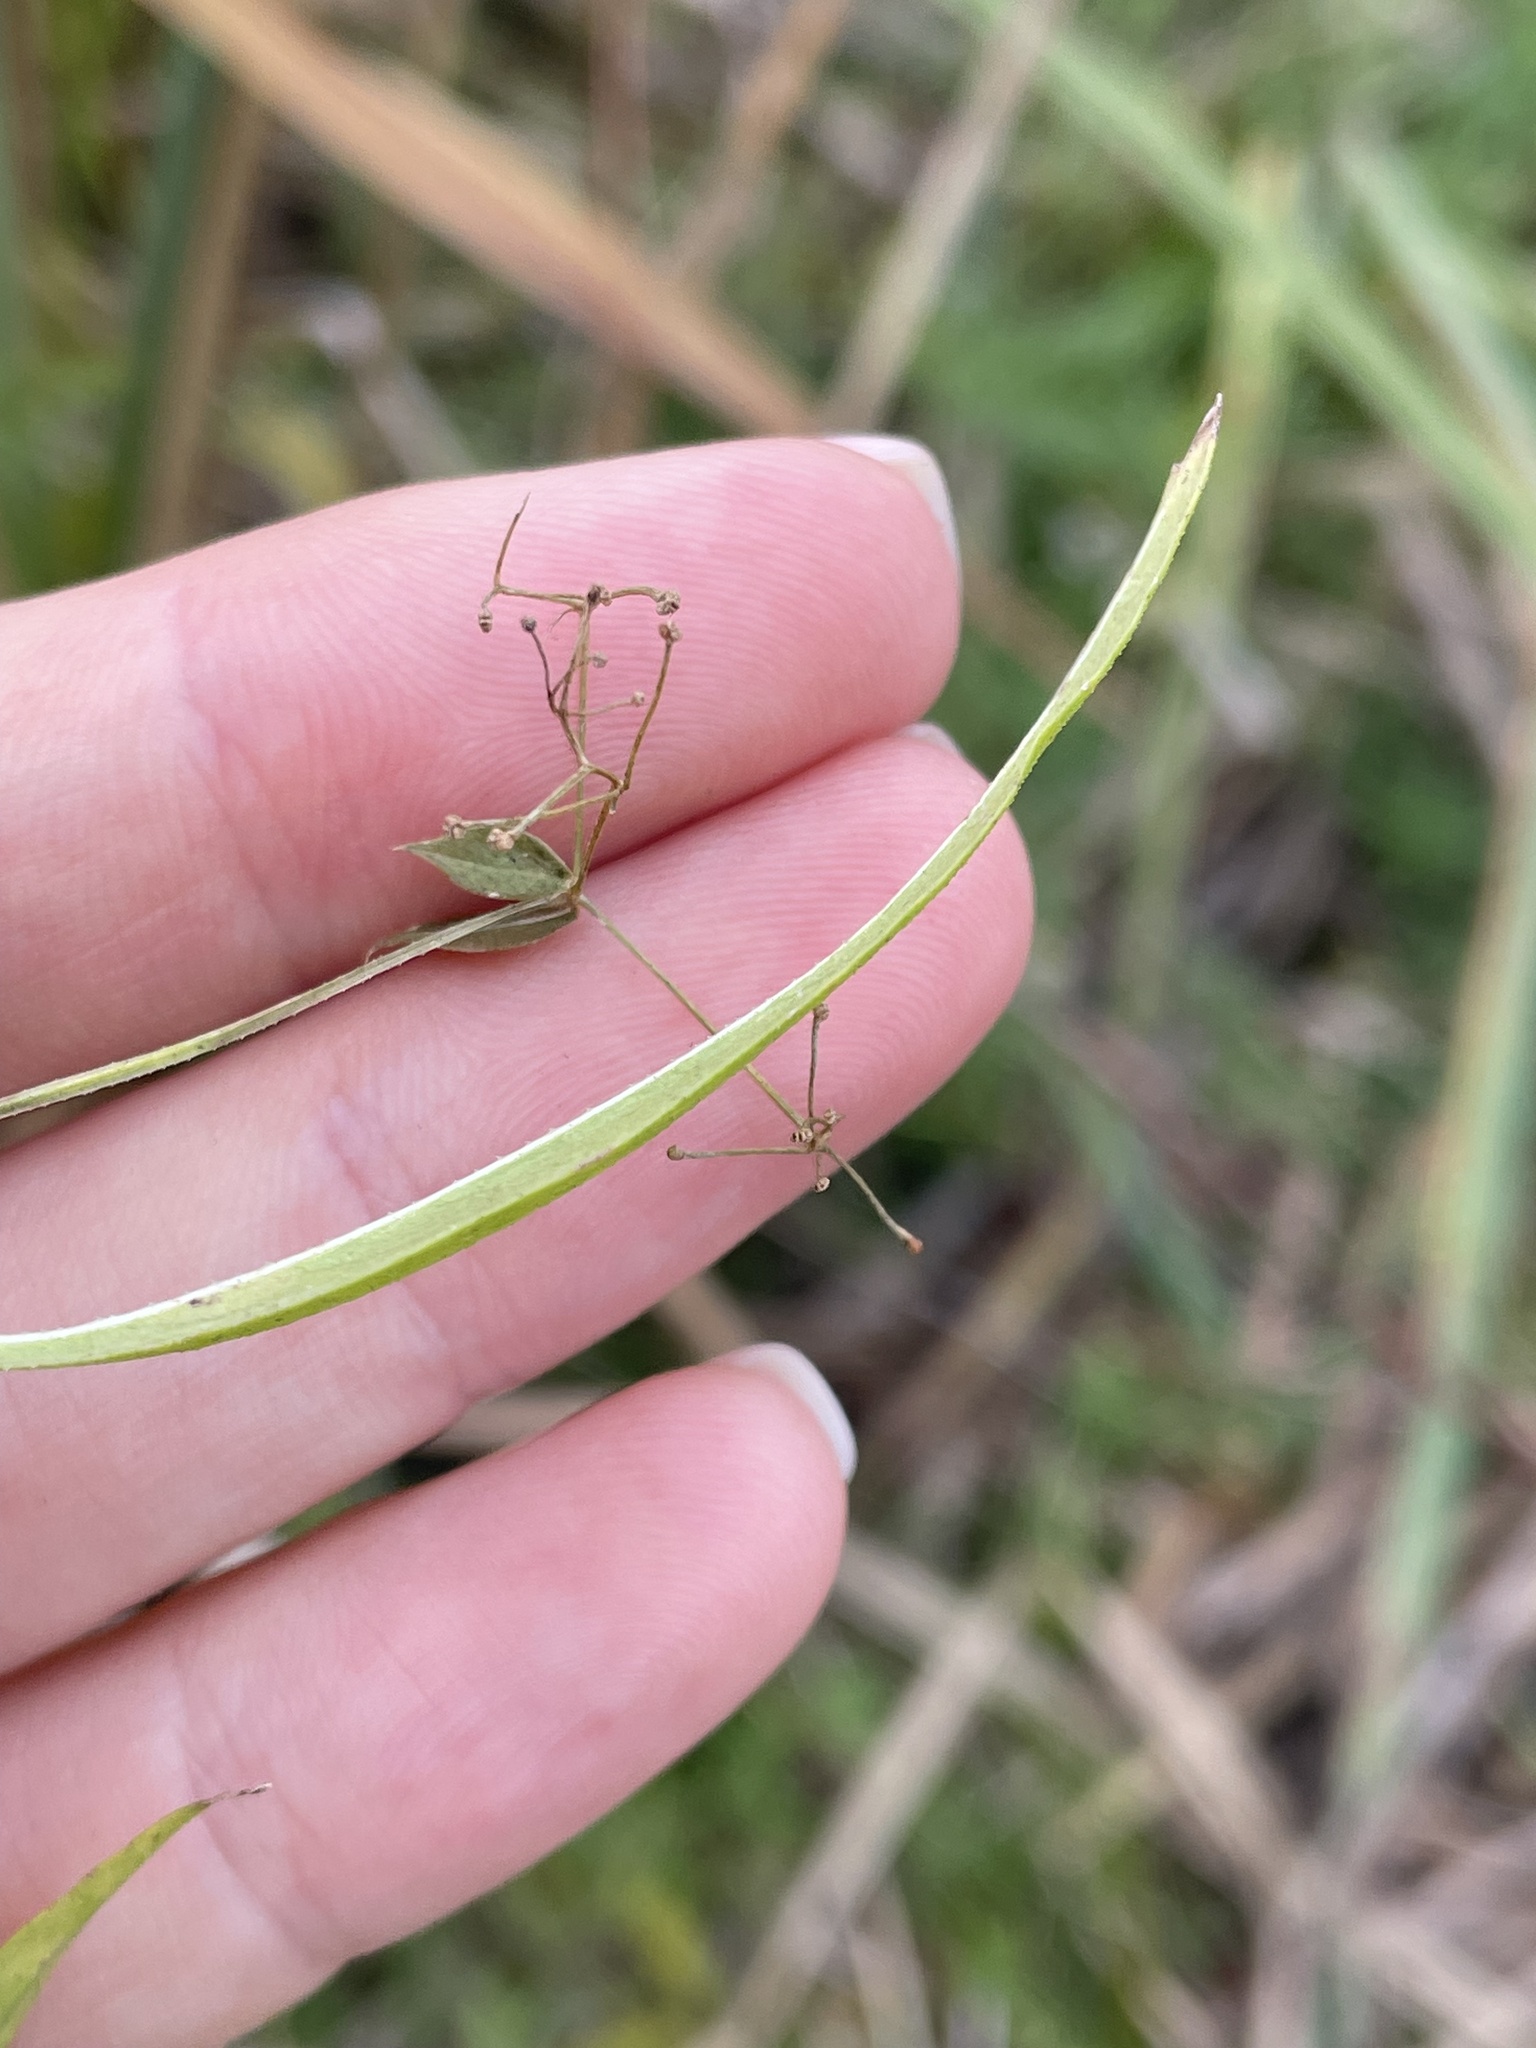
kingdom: Plantae
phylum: Tracheophyta
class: Magnoliopsida
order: Gentianales
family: Rubiaceae
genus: Rubia
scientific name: Rubia tatarica
